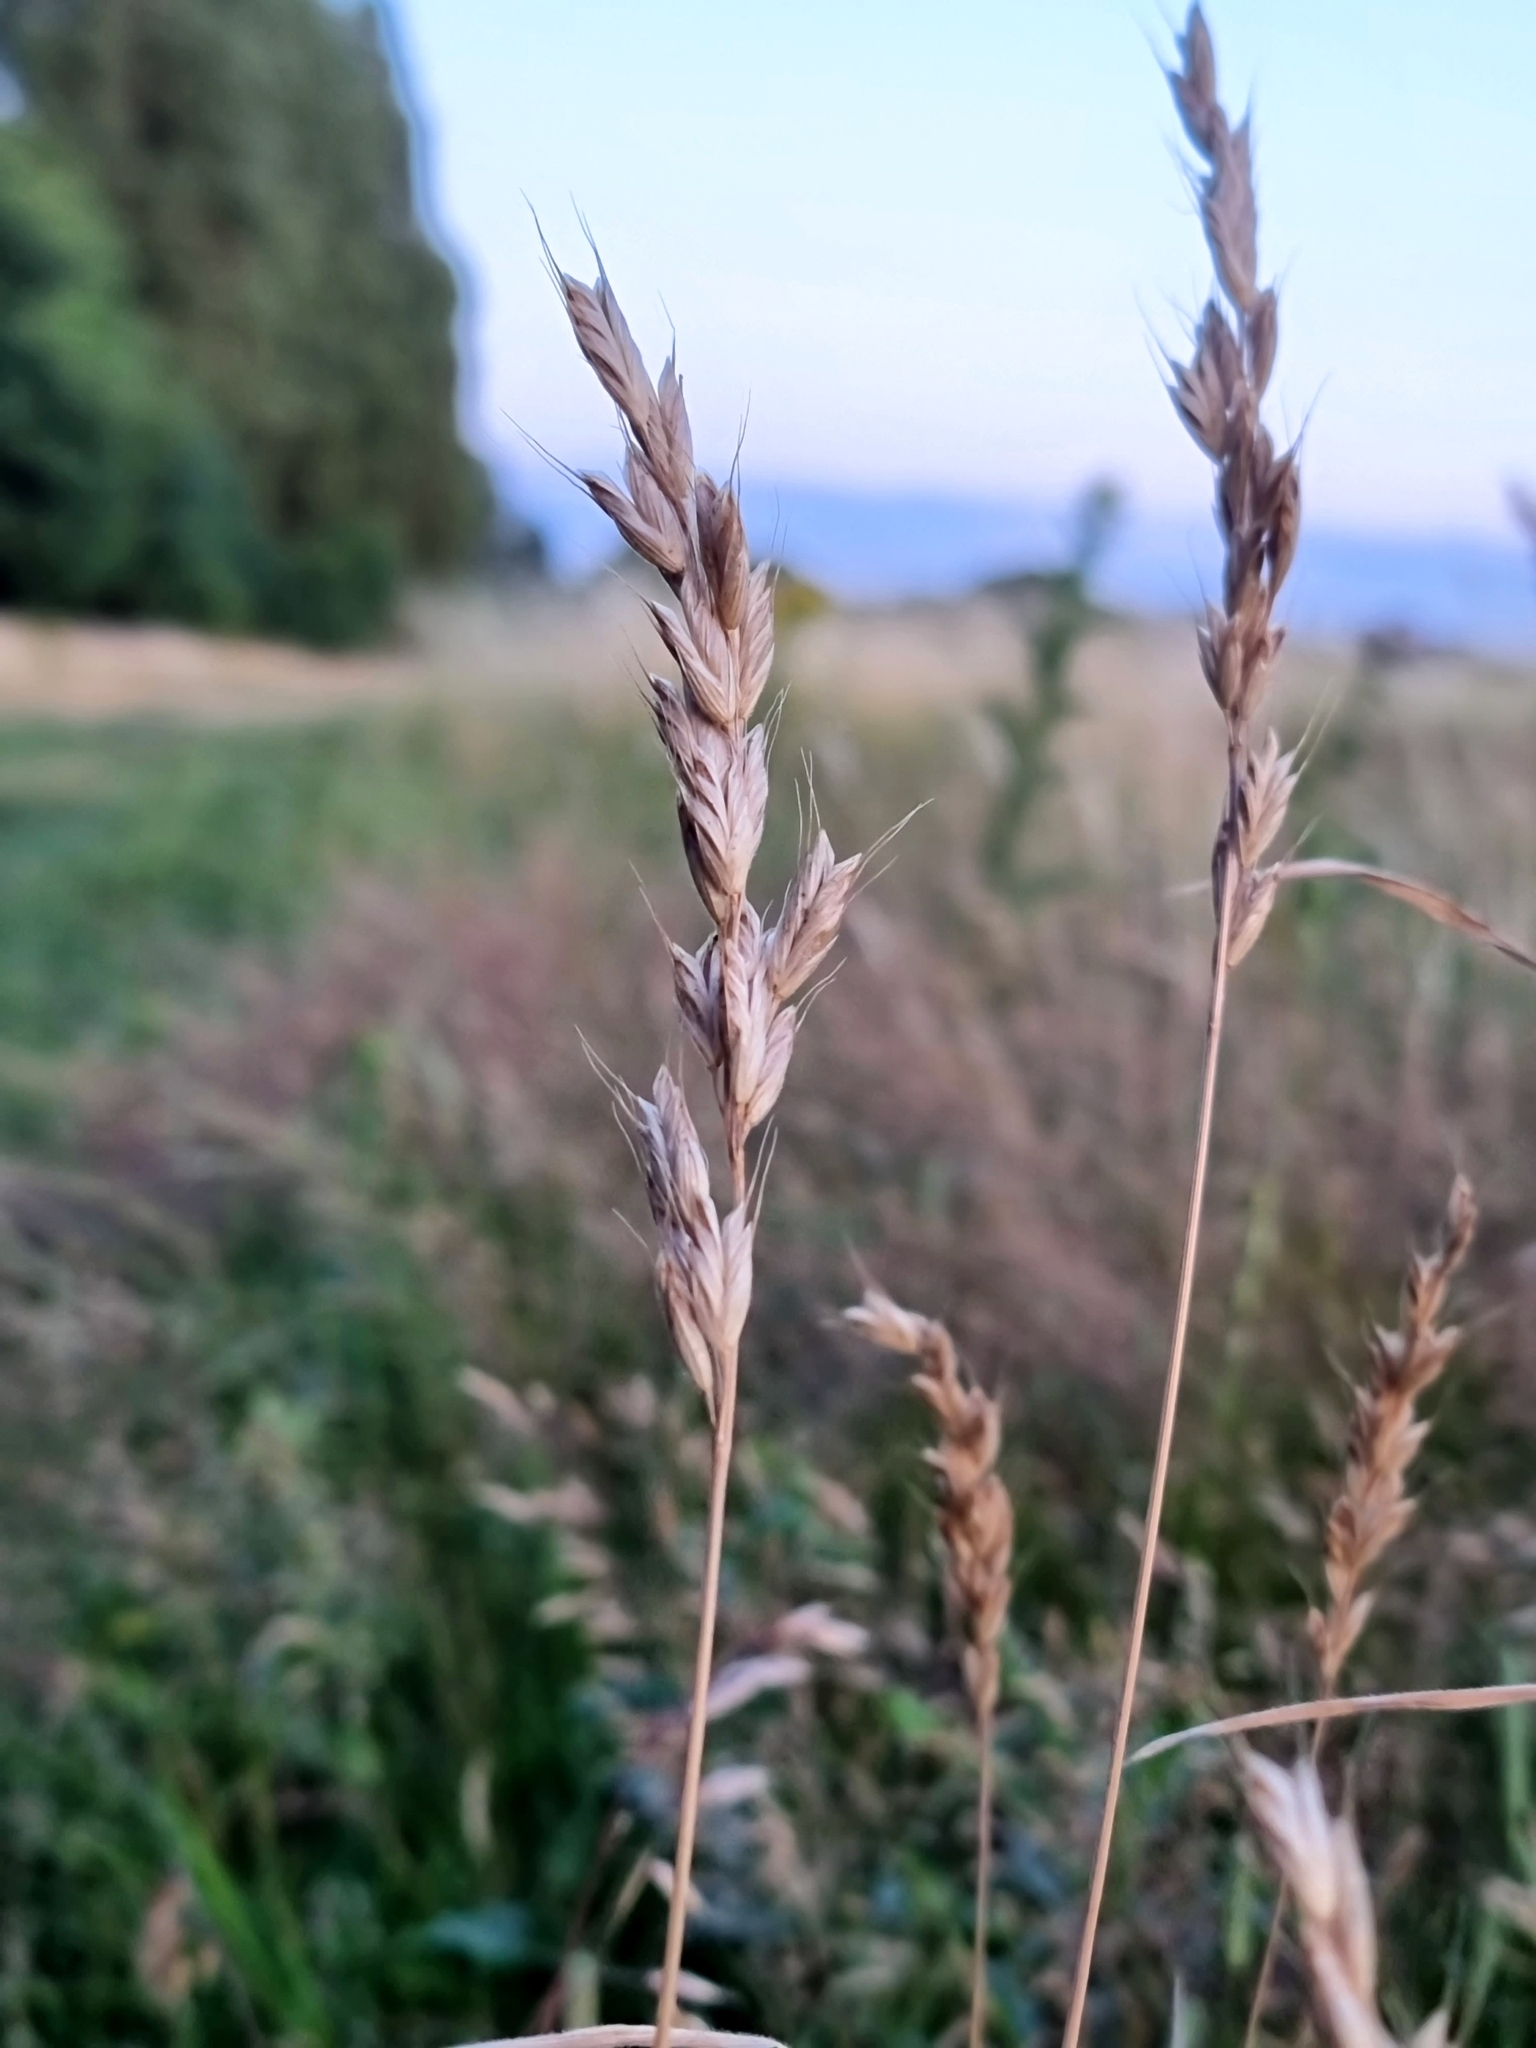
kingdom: Plantae
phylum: Tracheophyta
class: Liliopsida
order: Poales
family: Poaceae
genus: Bromus
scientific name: Bromus hordeaceus
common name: Soft brome
